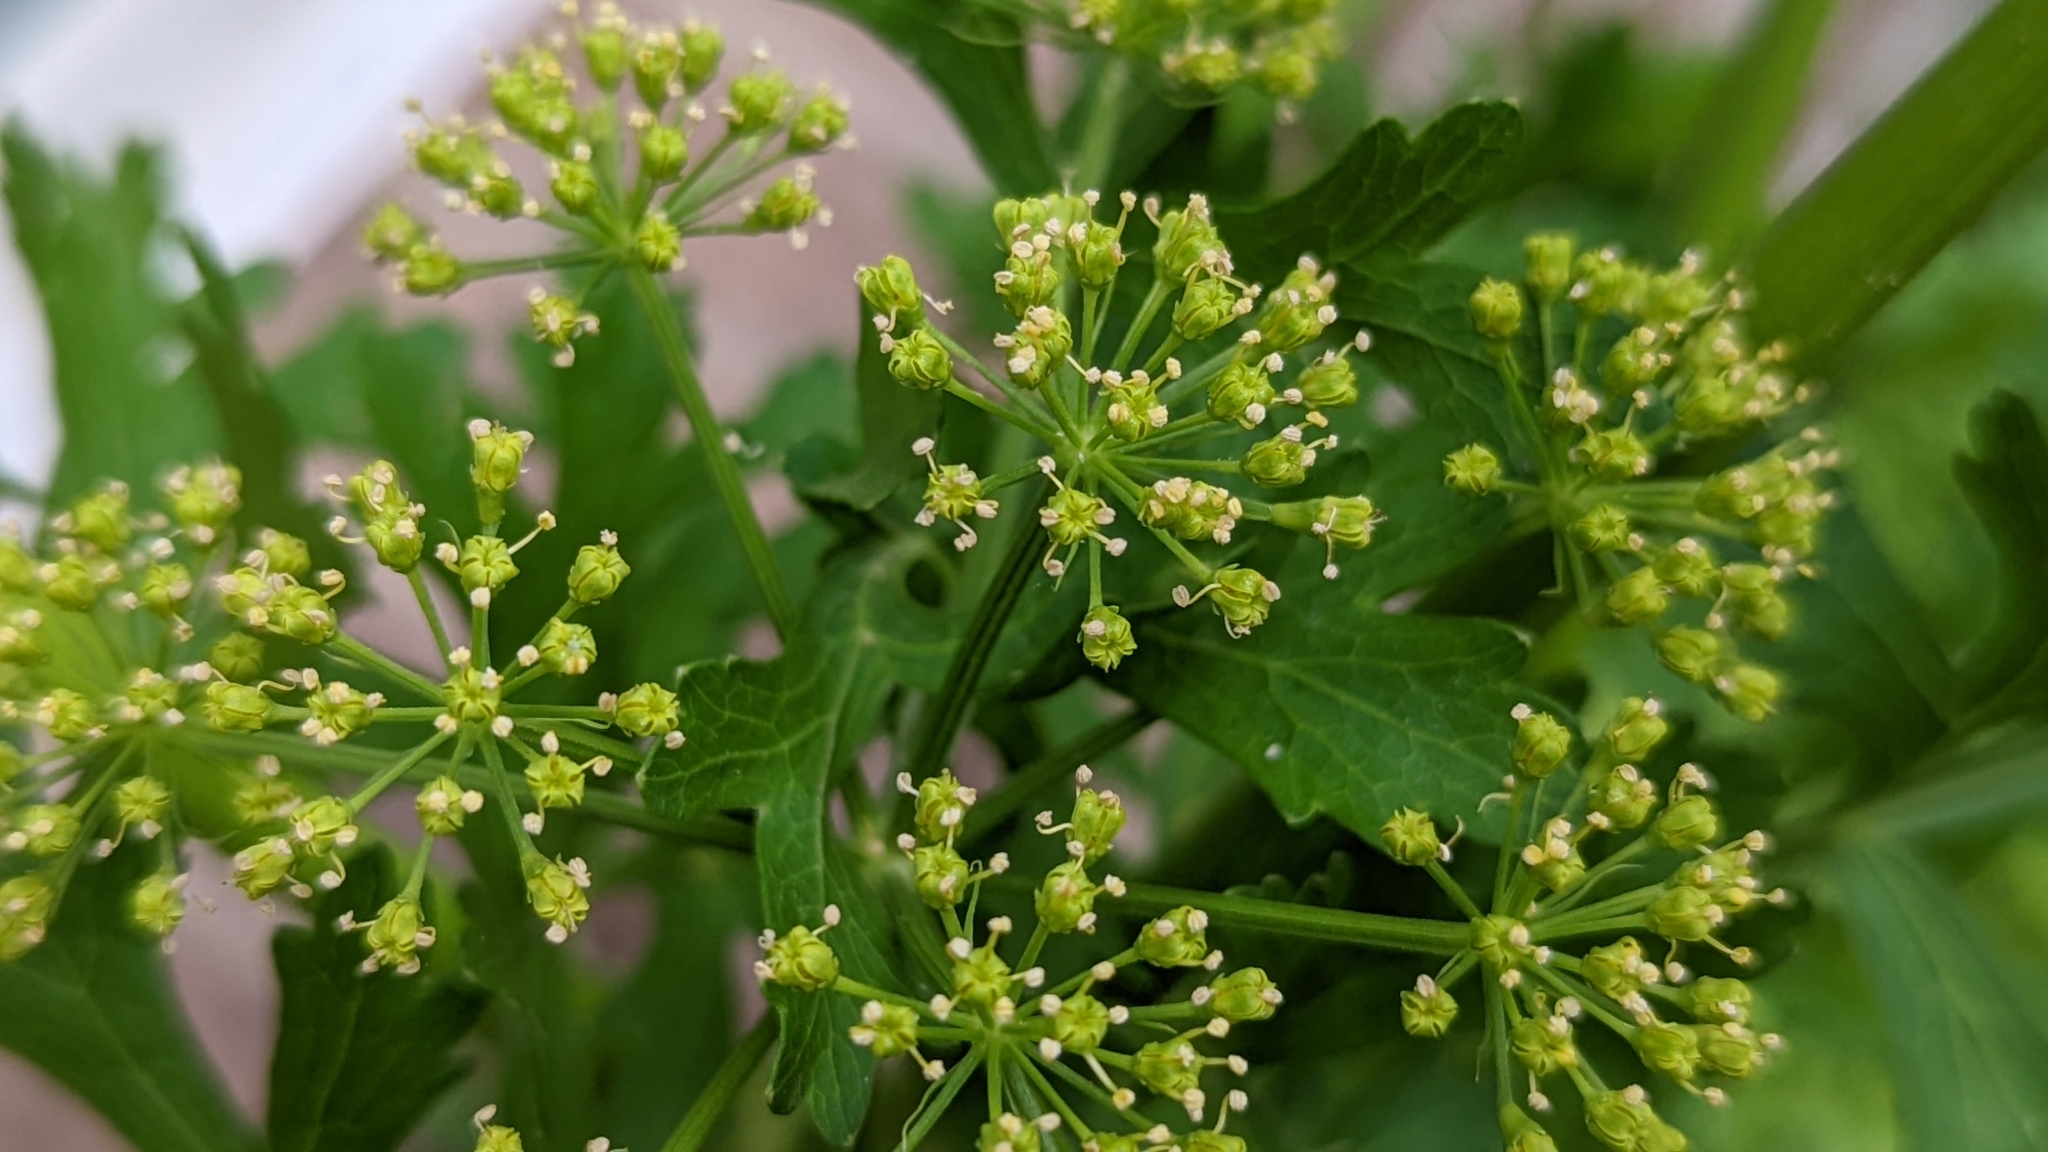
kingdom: Plantae
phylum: Tracheophyta
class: Magnoliopsida
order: Apiales
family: Apiaceae
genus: Polytaenia
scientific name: Polytaenia texana
